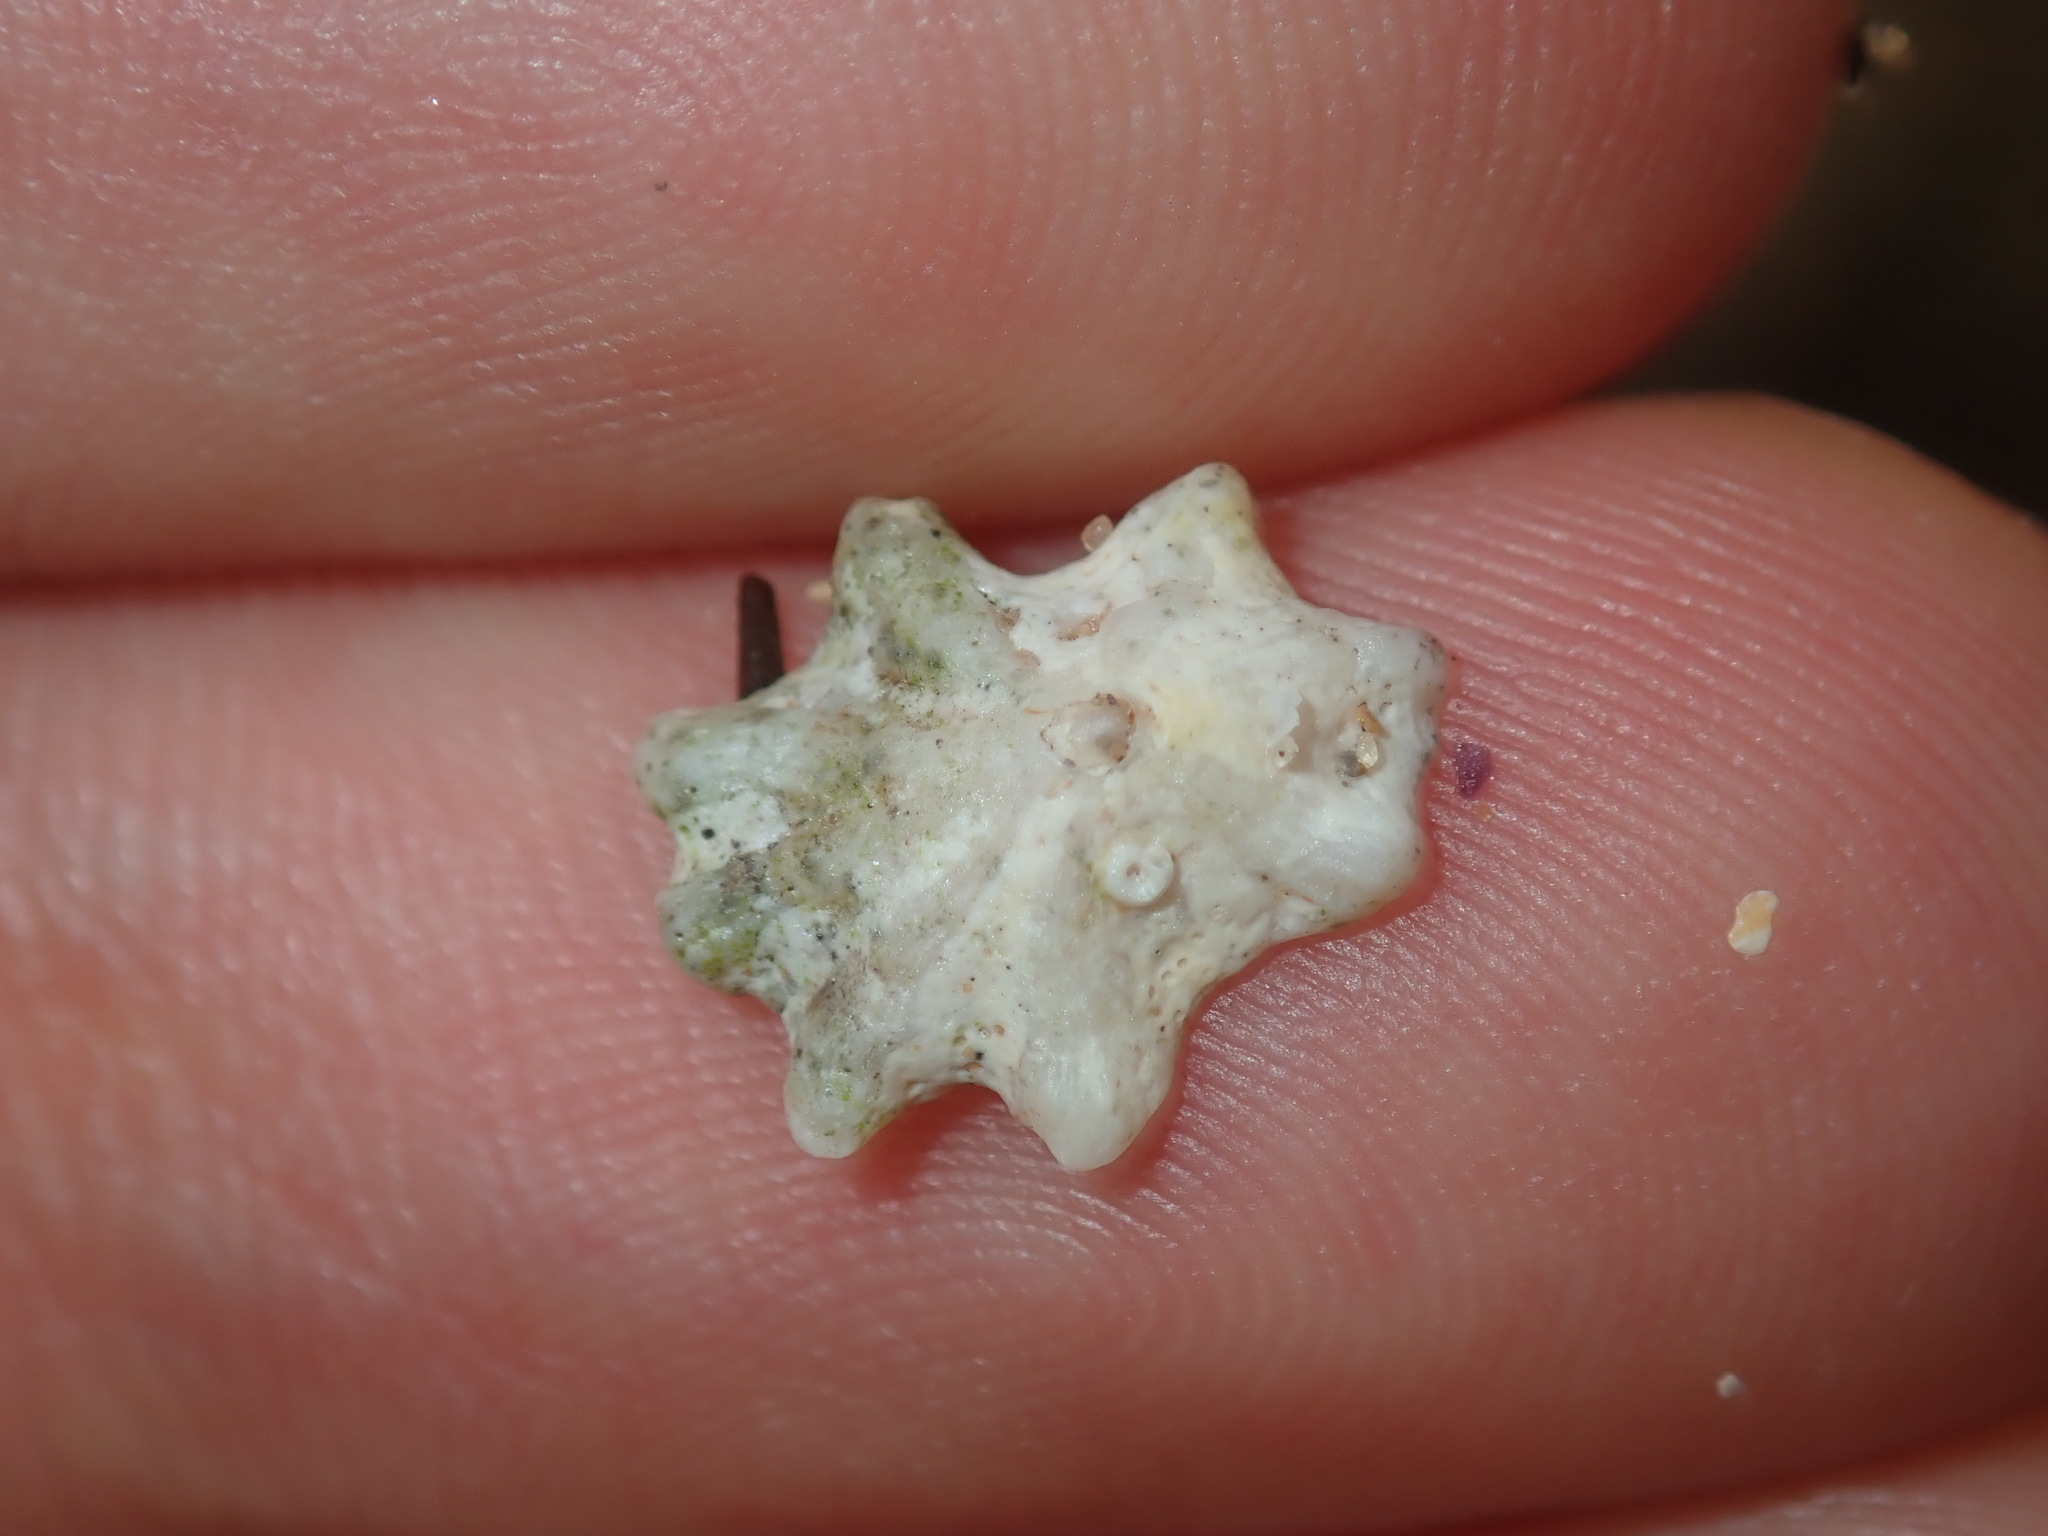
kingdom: Animalia
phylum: Mollusca
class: Gastropoda
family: Patellidae
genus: Scutellastra
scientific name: Scutellastra chapmani
